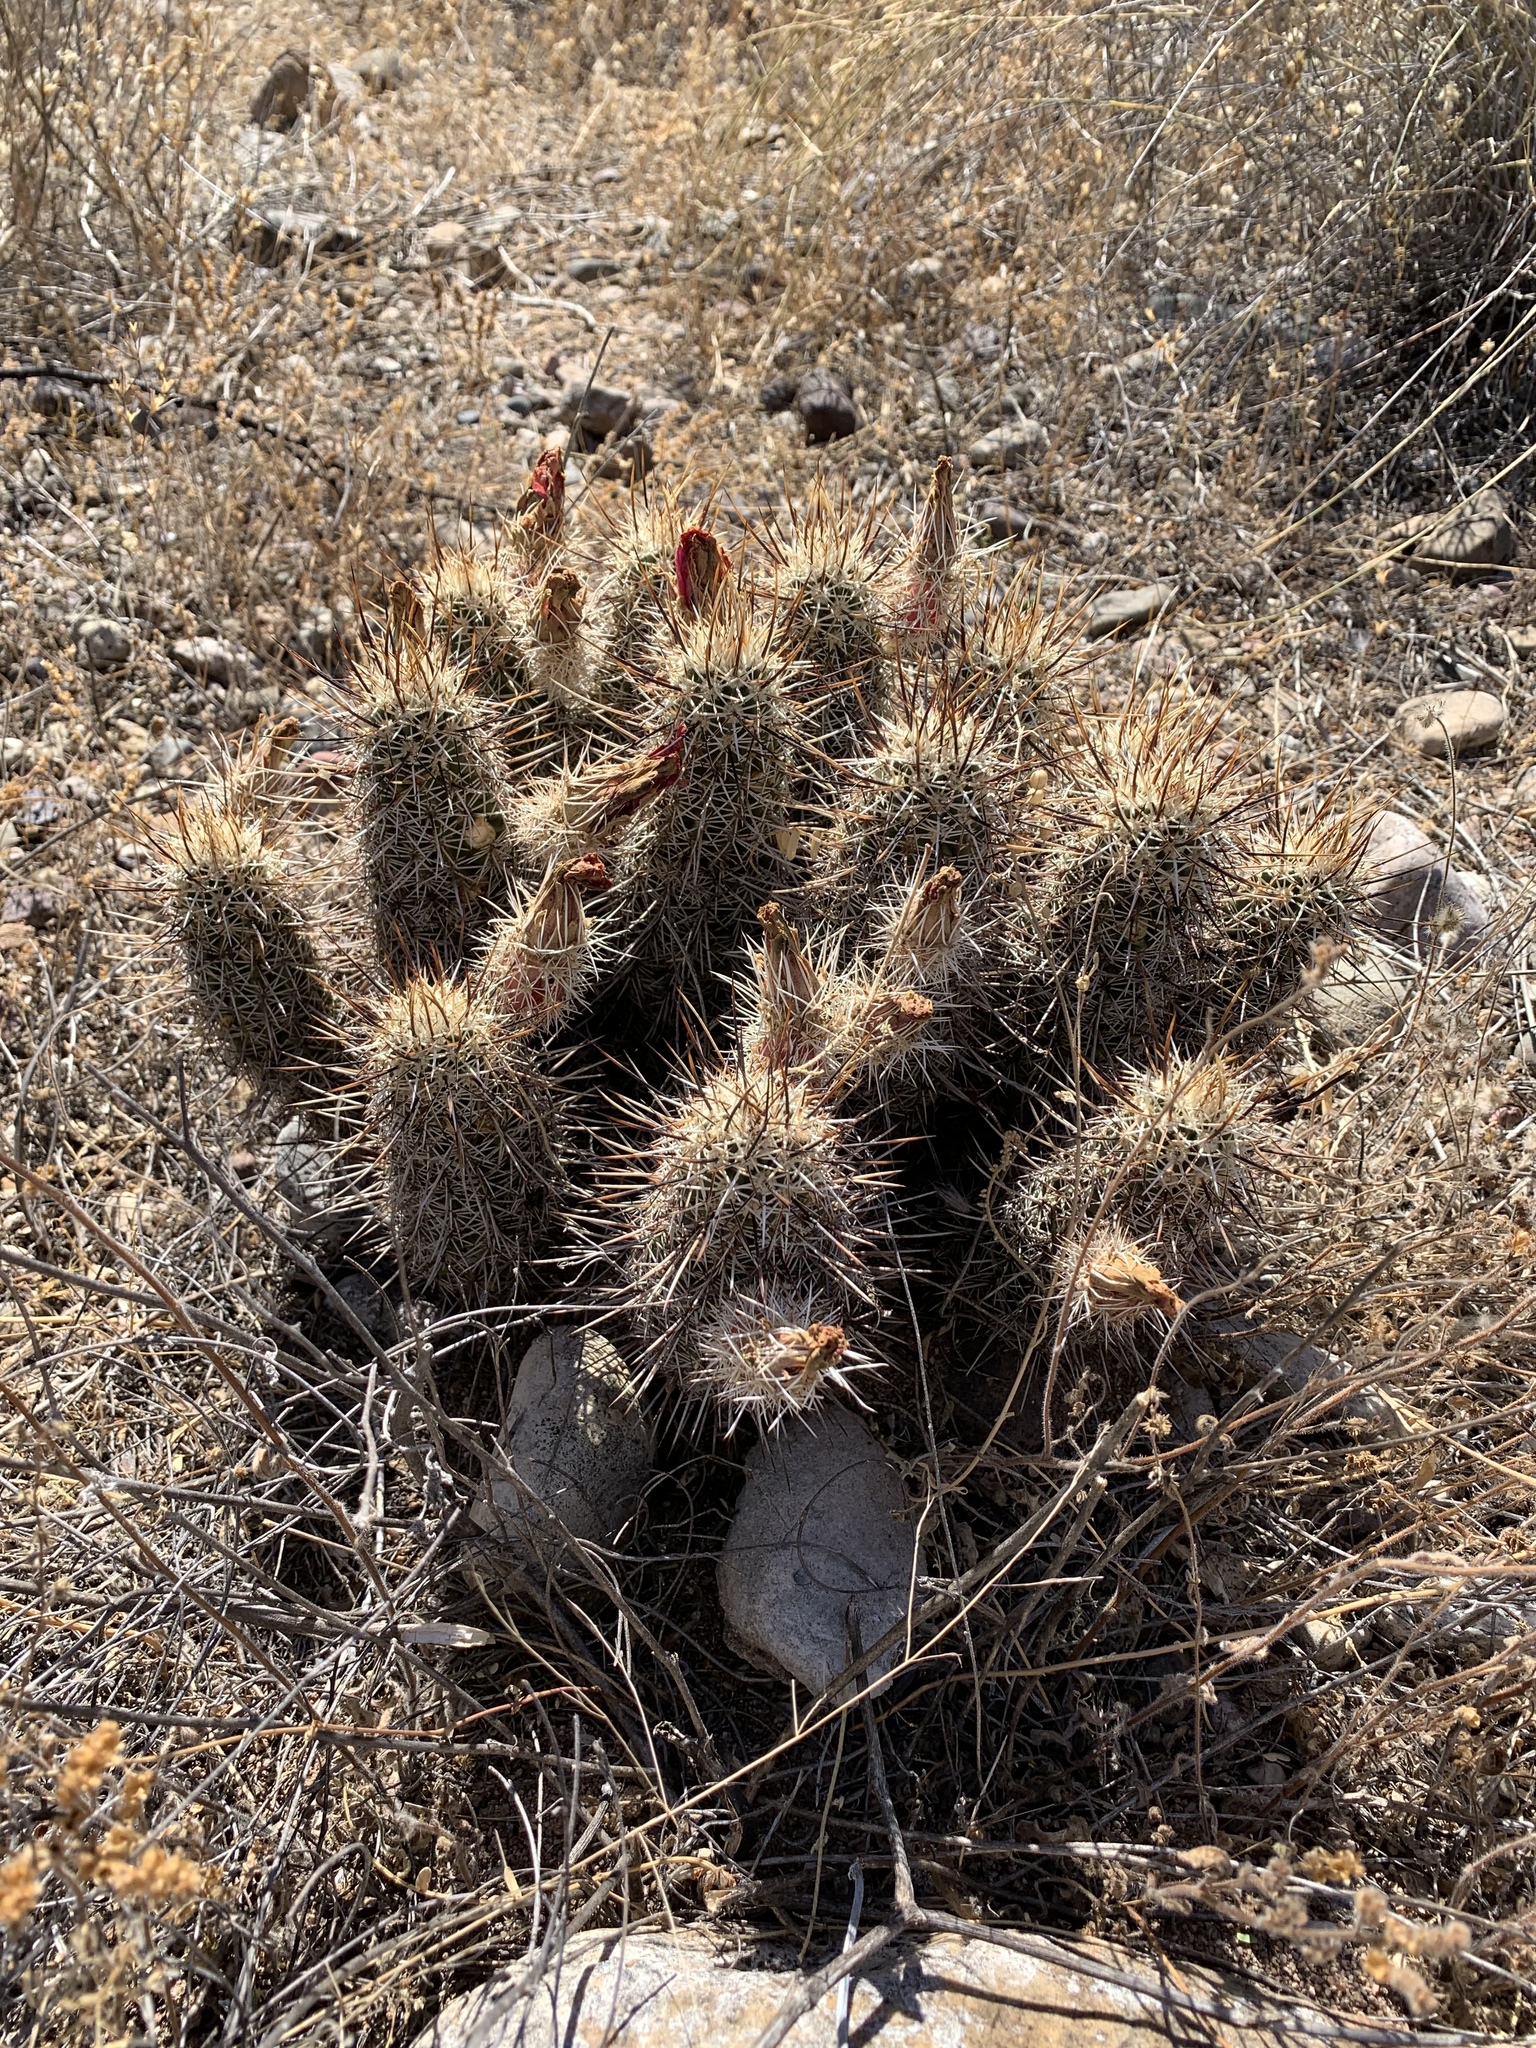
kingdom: Plantae
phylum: Tracheophyta
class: Magnoliopsida
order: Caryophyllales
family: Cactaceae
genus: Echinocereus
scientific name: Echinocereus fasciculatus
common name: Bundle hedgehog
